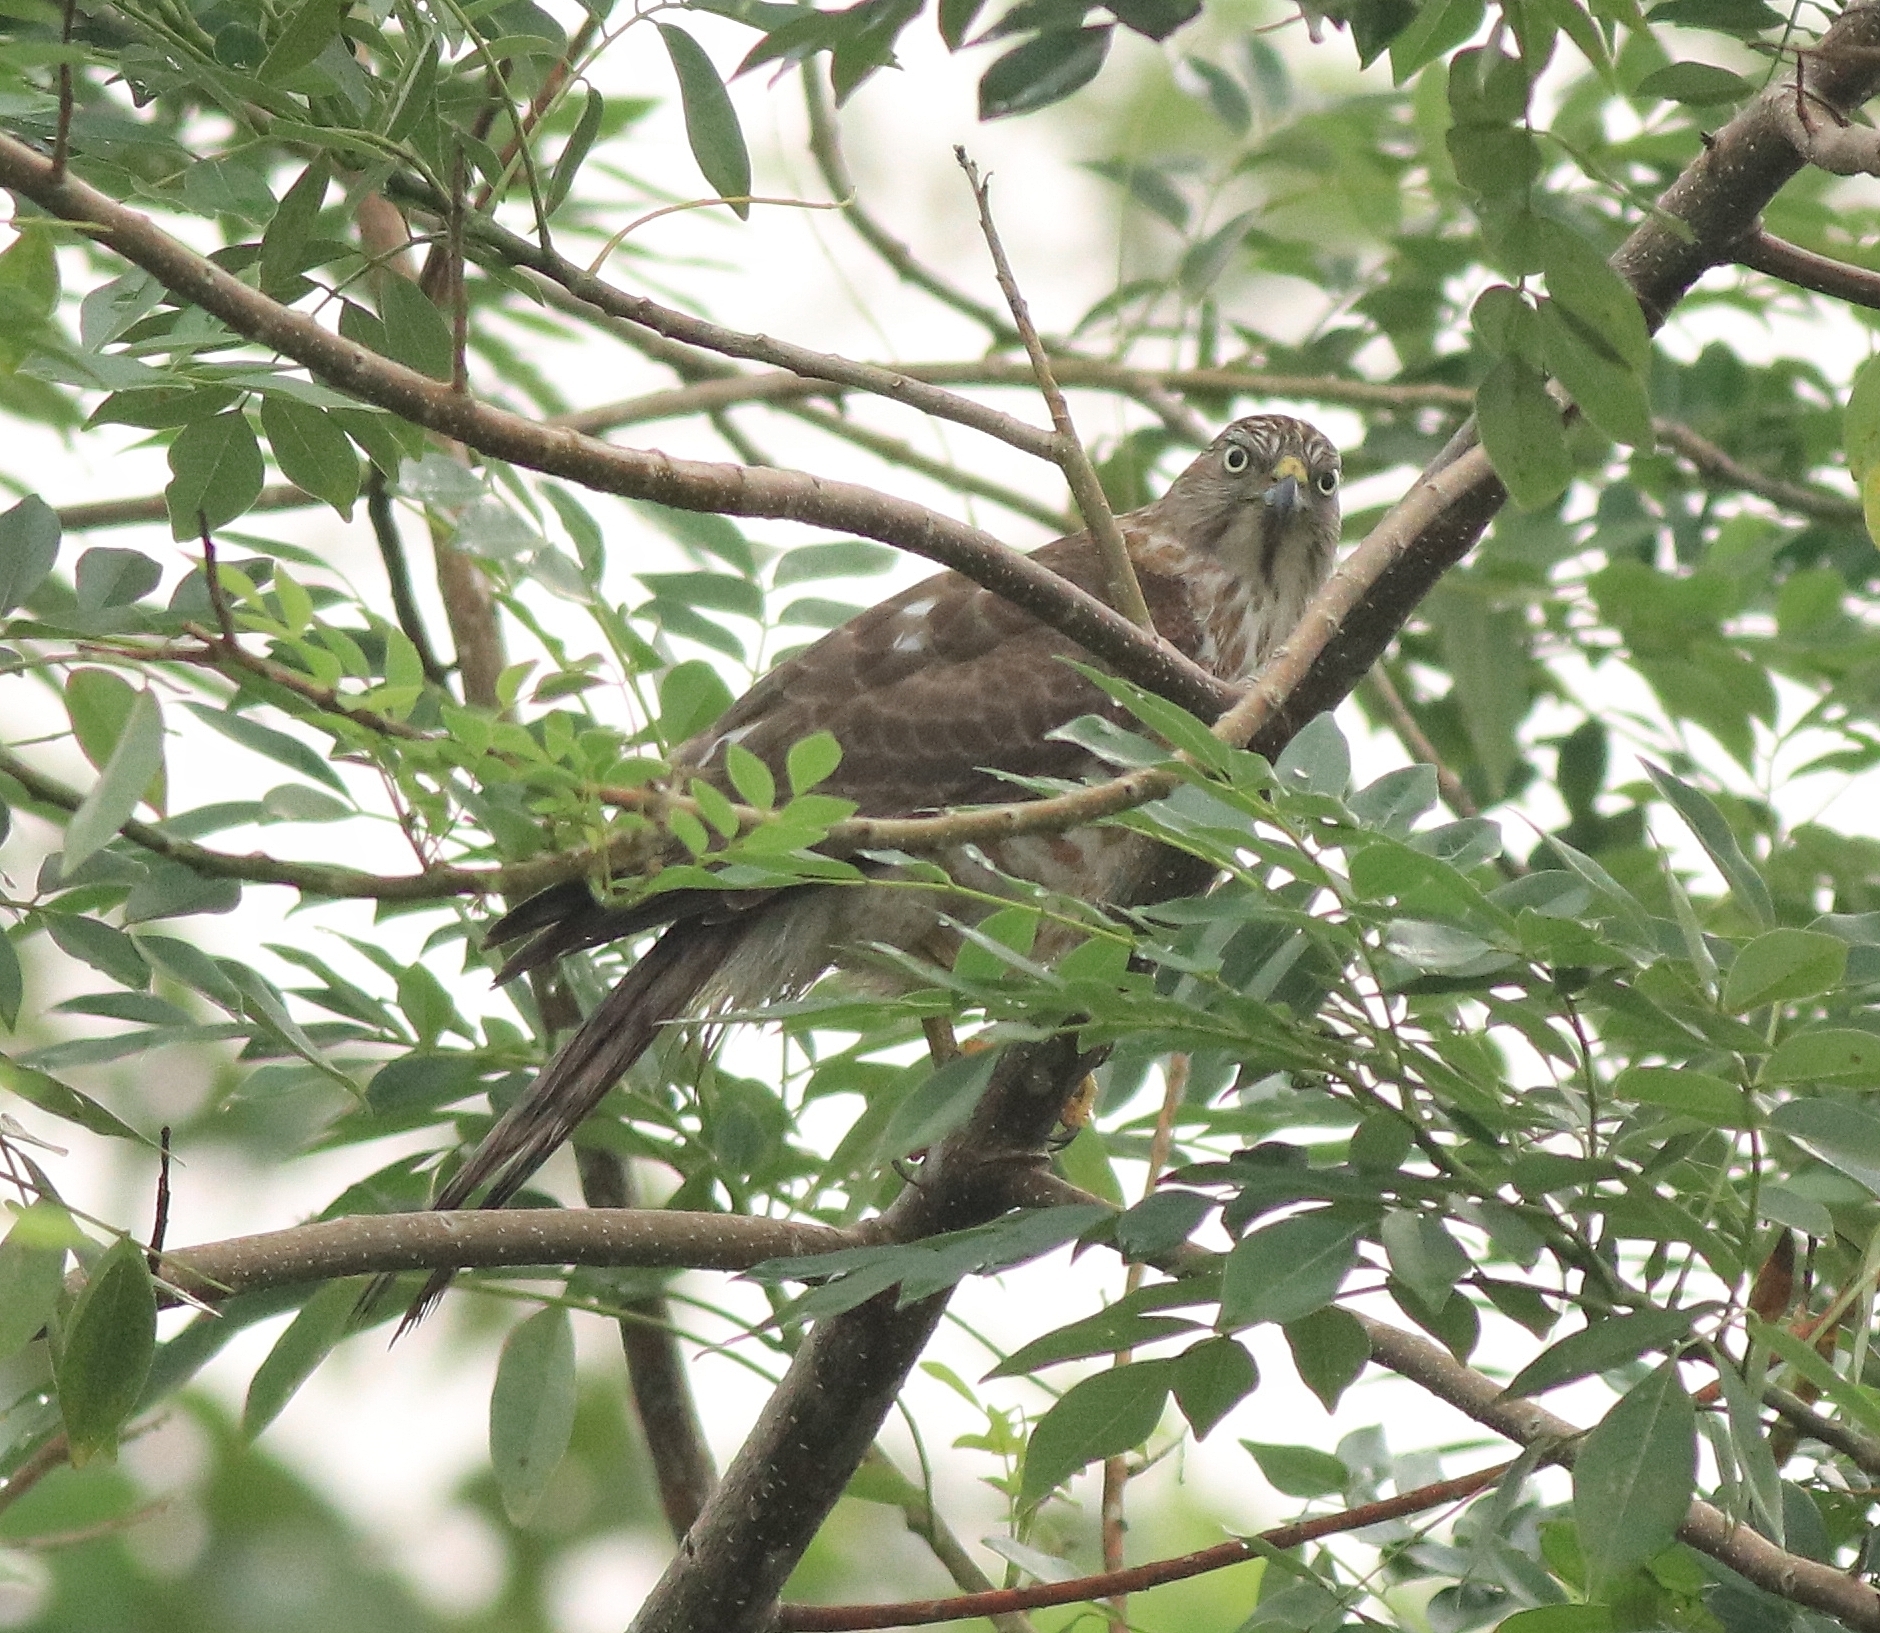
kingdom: Animalia
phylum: Chordata
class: Aves
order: Accipitriformes
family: Accipitridae
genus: Accipiter
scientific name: Accipiter badius
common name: Shikra
